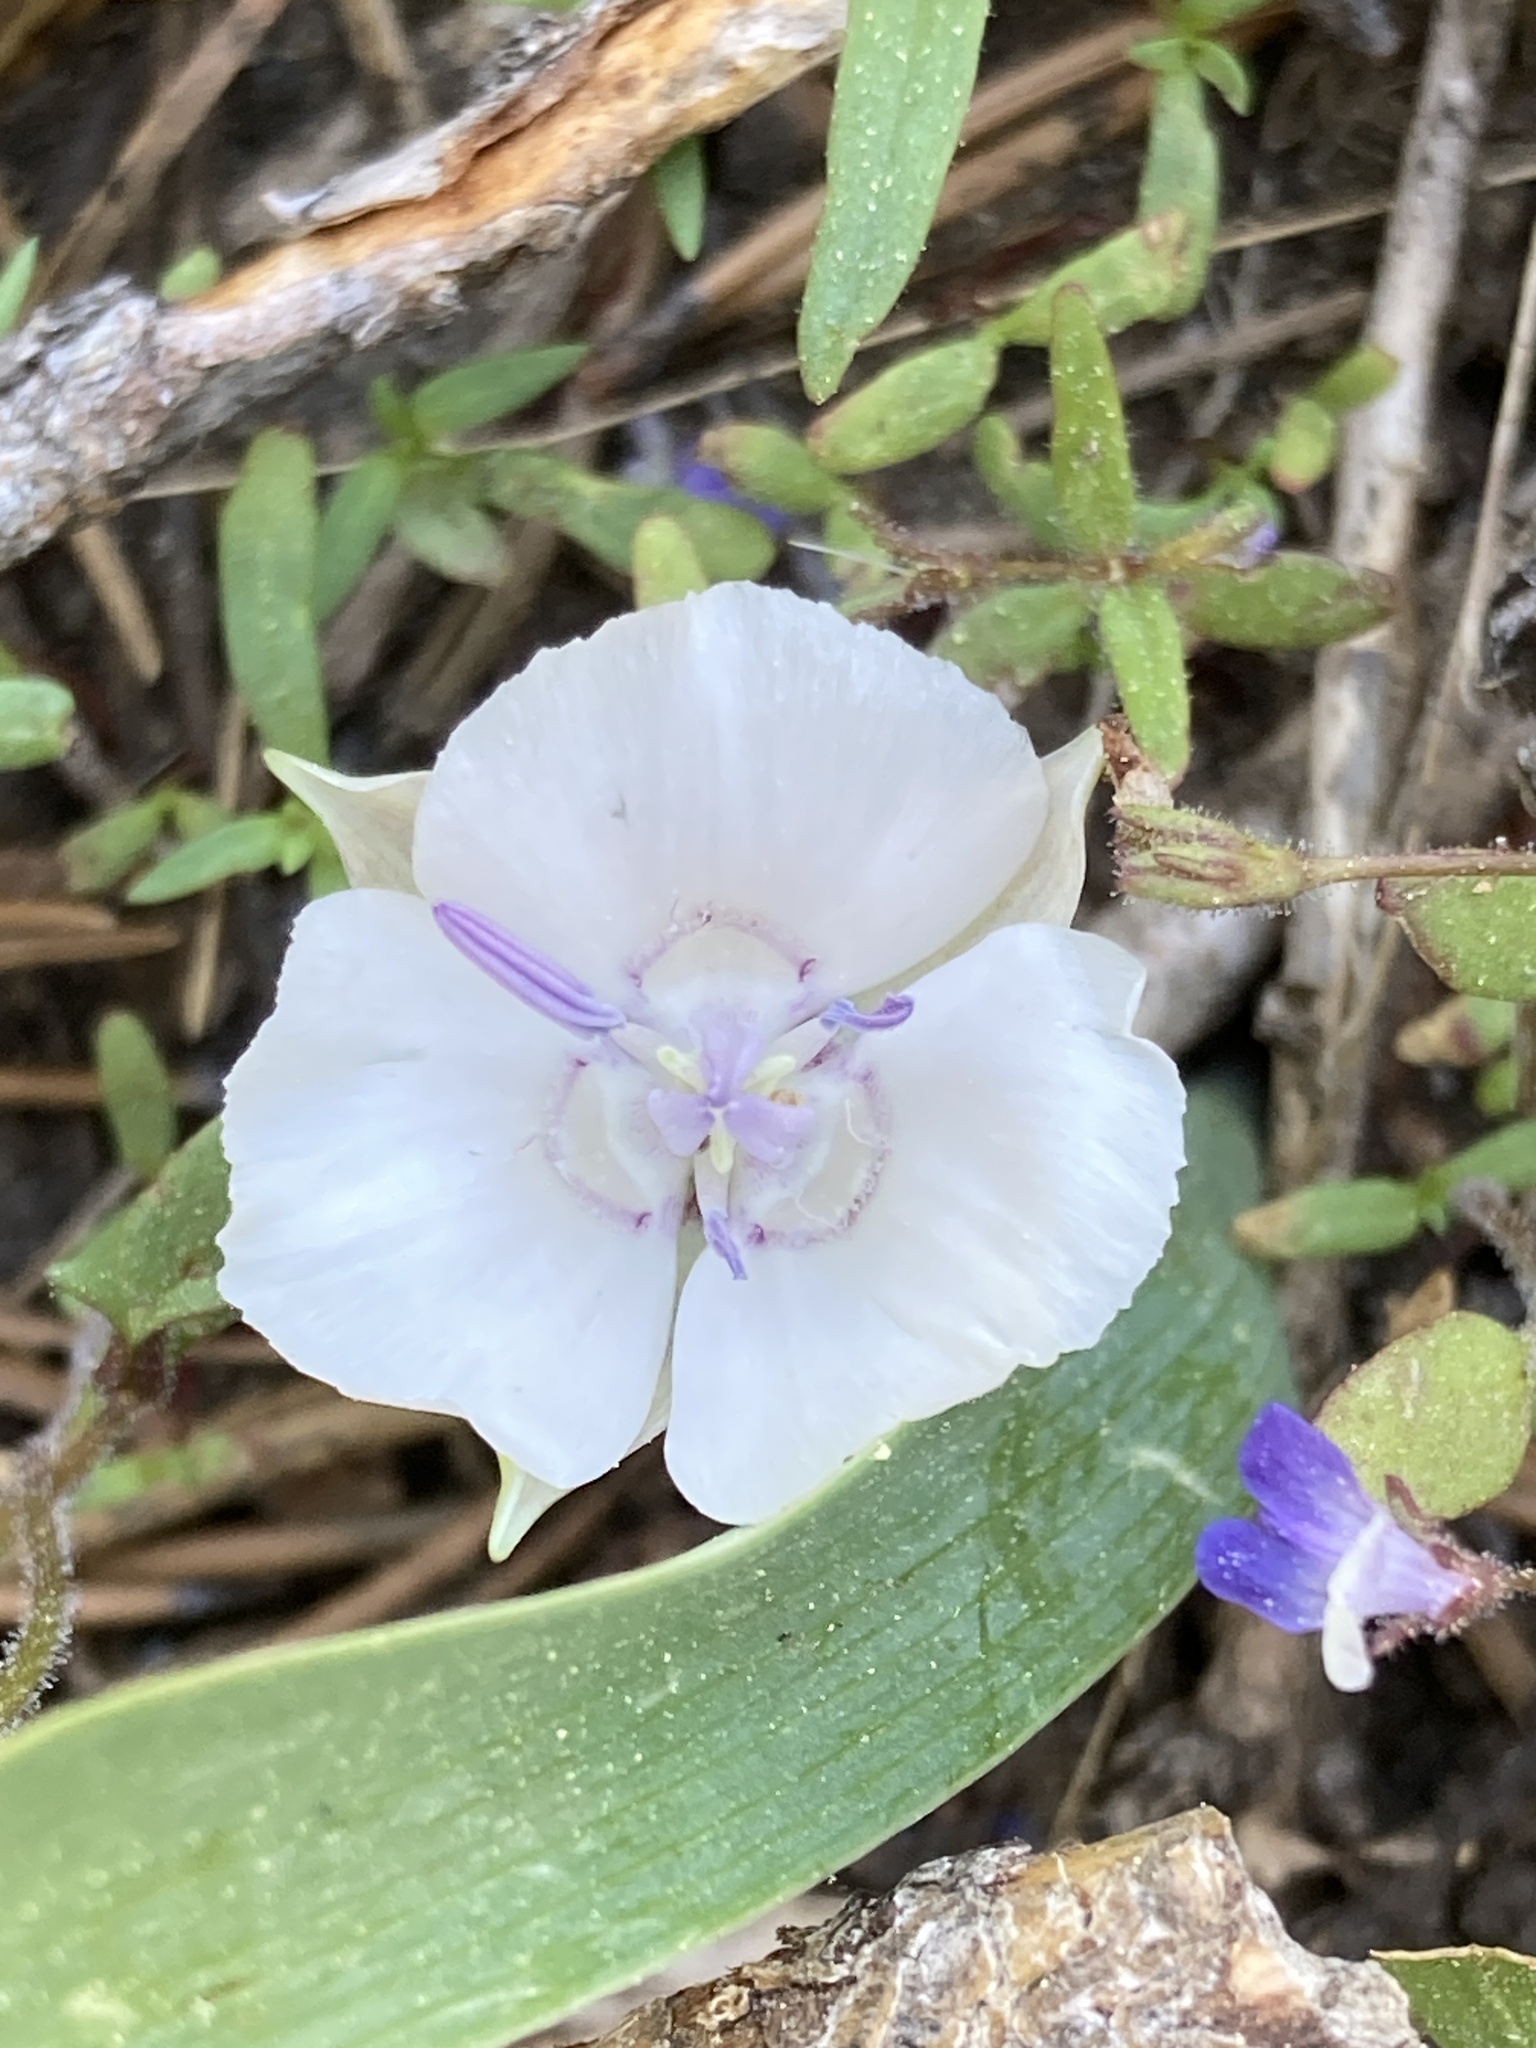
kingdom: Plantae
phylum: Tracheophyta
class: Liliopsida
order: Liliales
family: Liliaceae
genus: Calochortus
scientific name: Calochortus minimus
